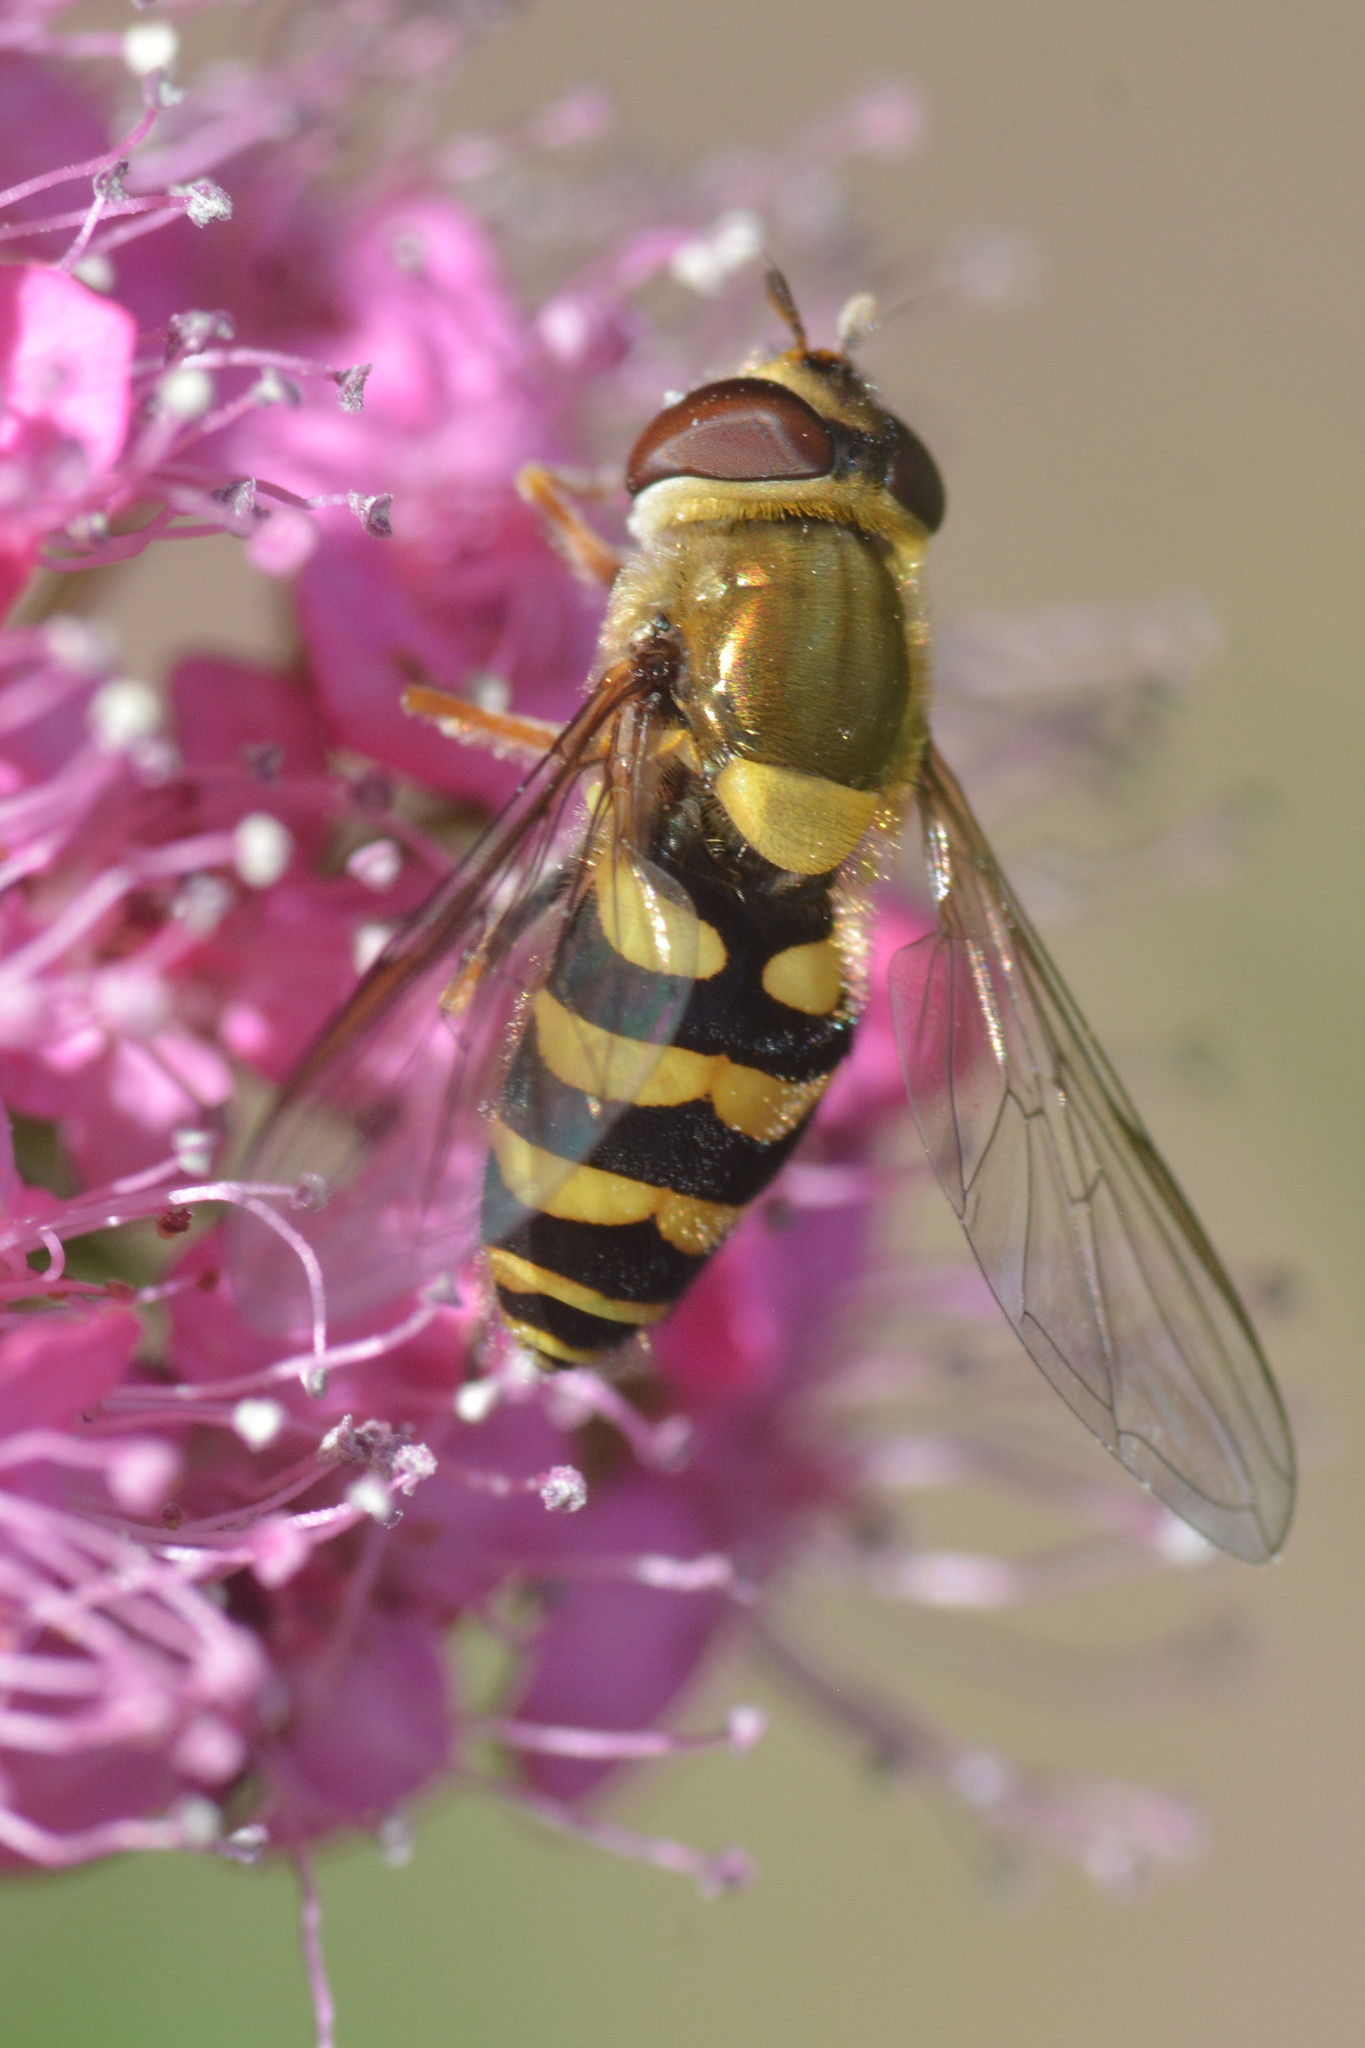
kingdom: Animalia
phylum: Arthropoda
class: Insecta
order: Diptera
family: Syrphidae
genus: Syrphus
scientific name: Syrphus
